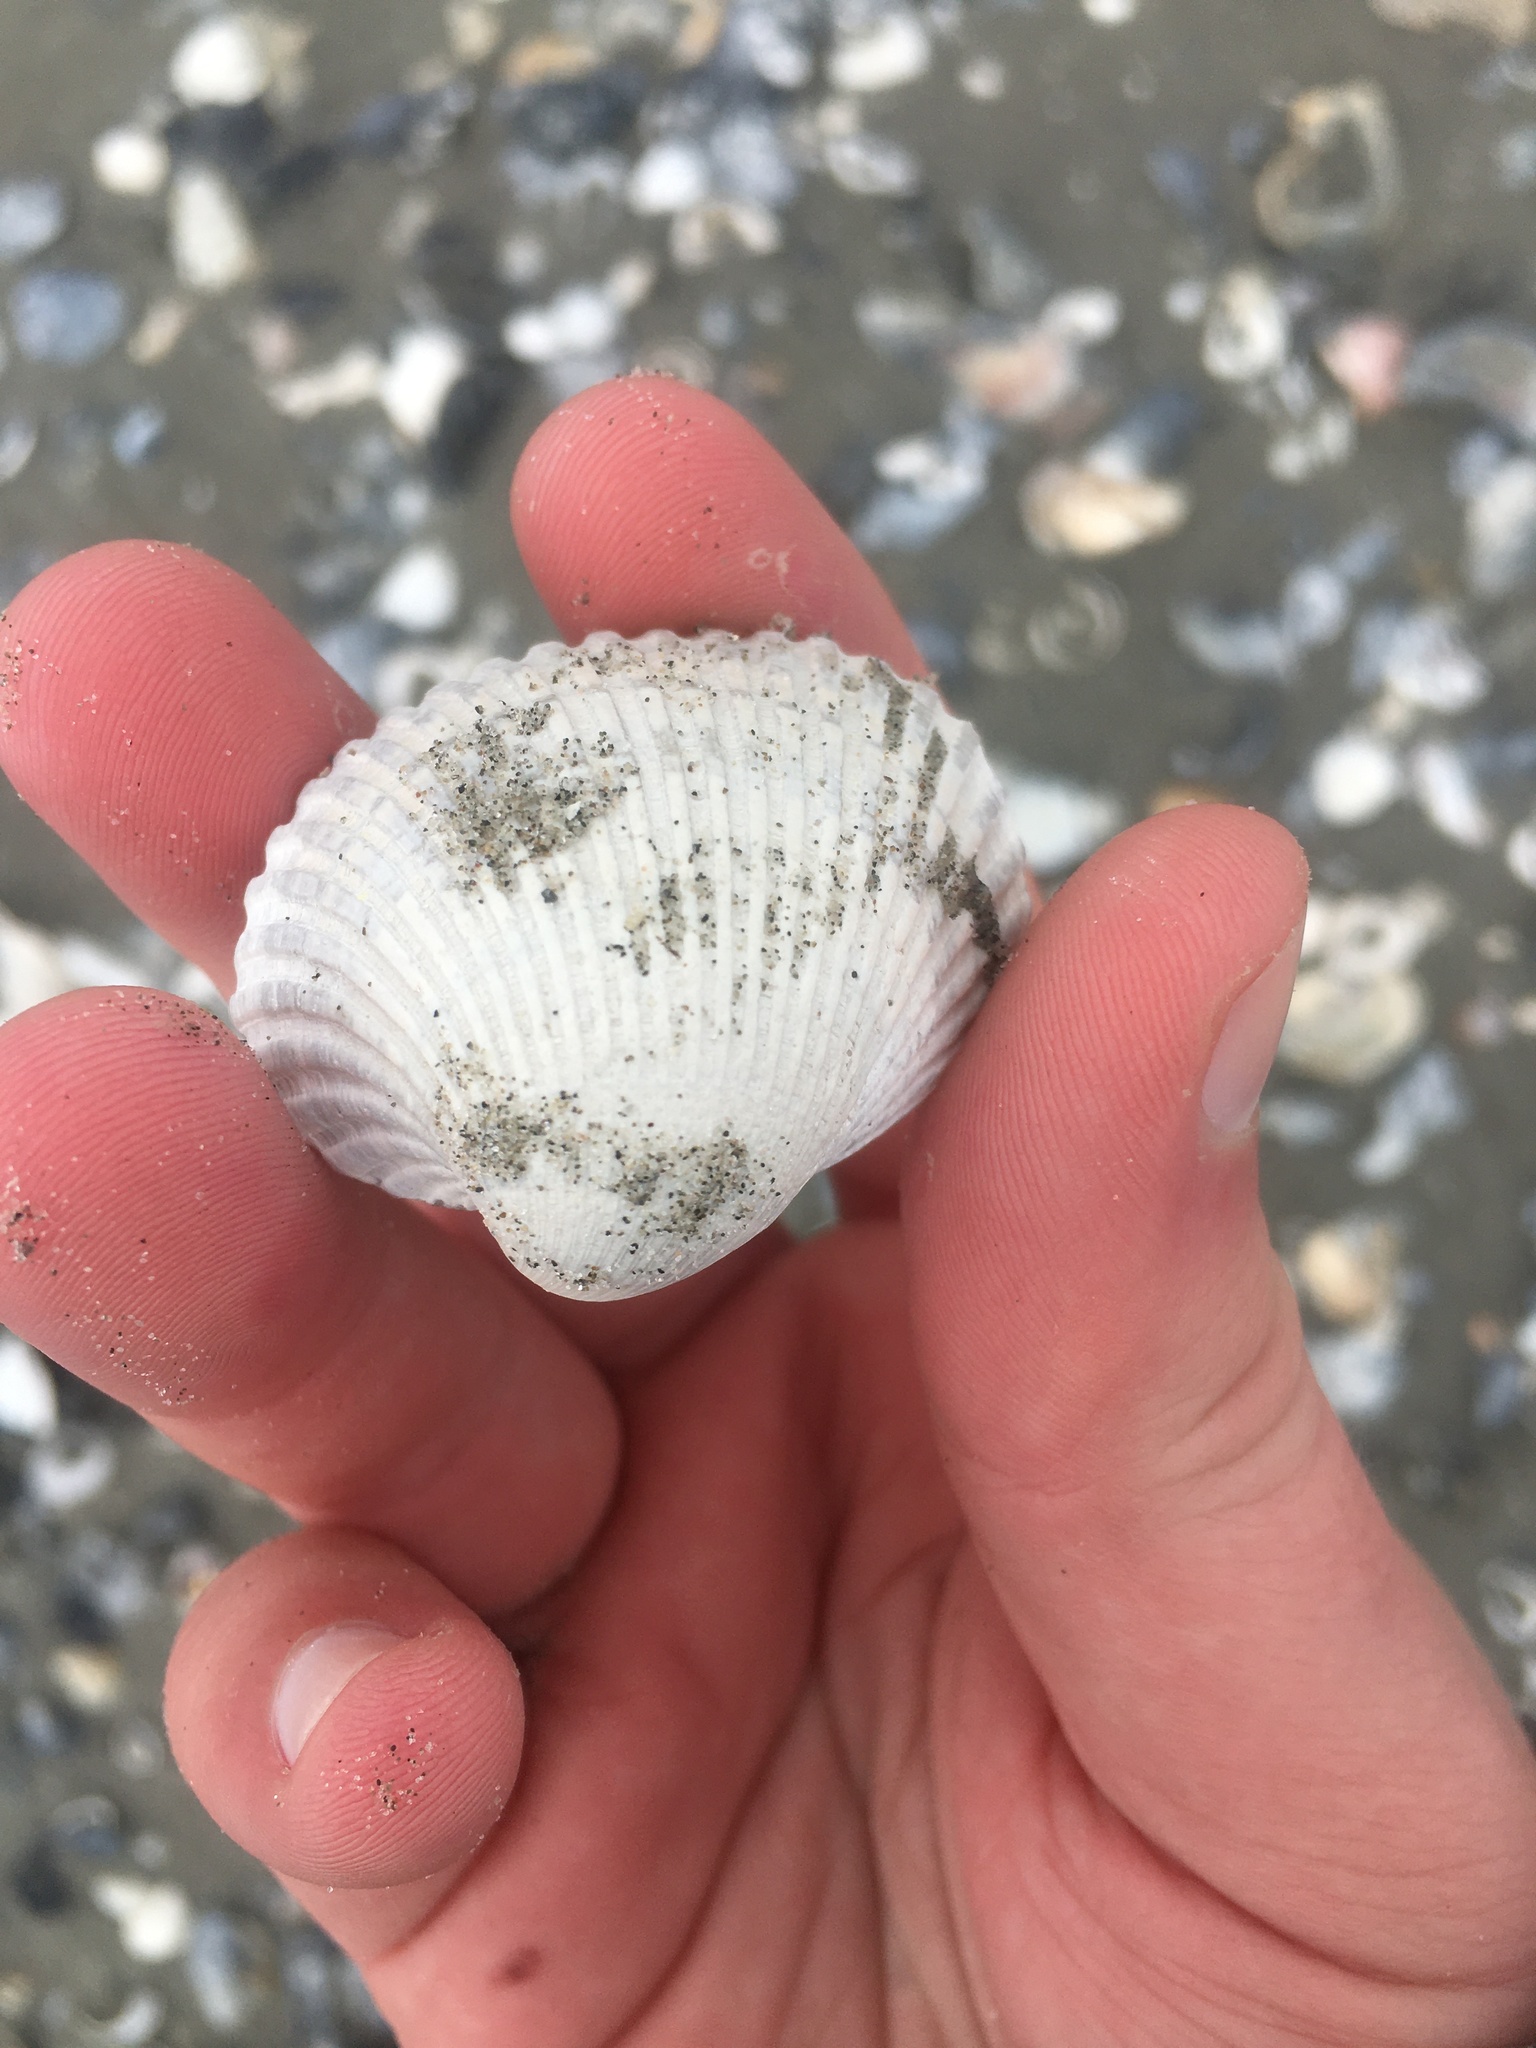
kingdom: Animalia
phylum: Mollusca
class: Bivalvia
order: Arcida
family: Arcidae
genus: Lunarca
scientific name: Lunarca ovalis
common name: Blood ark
